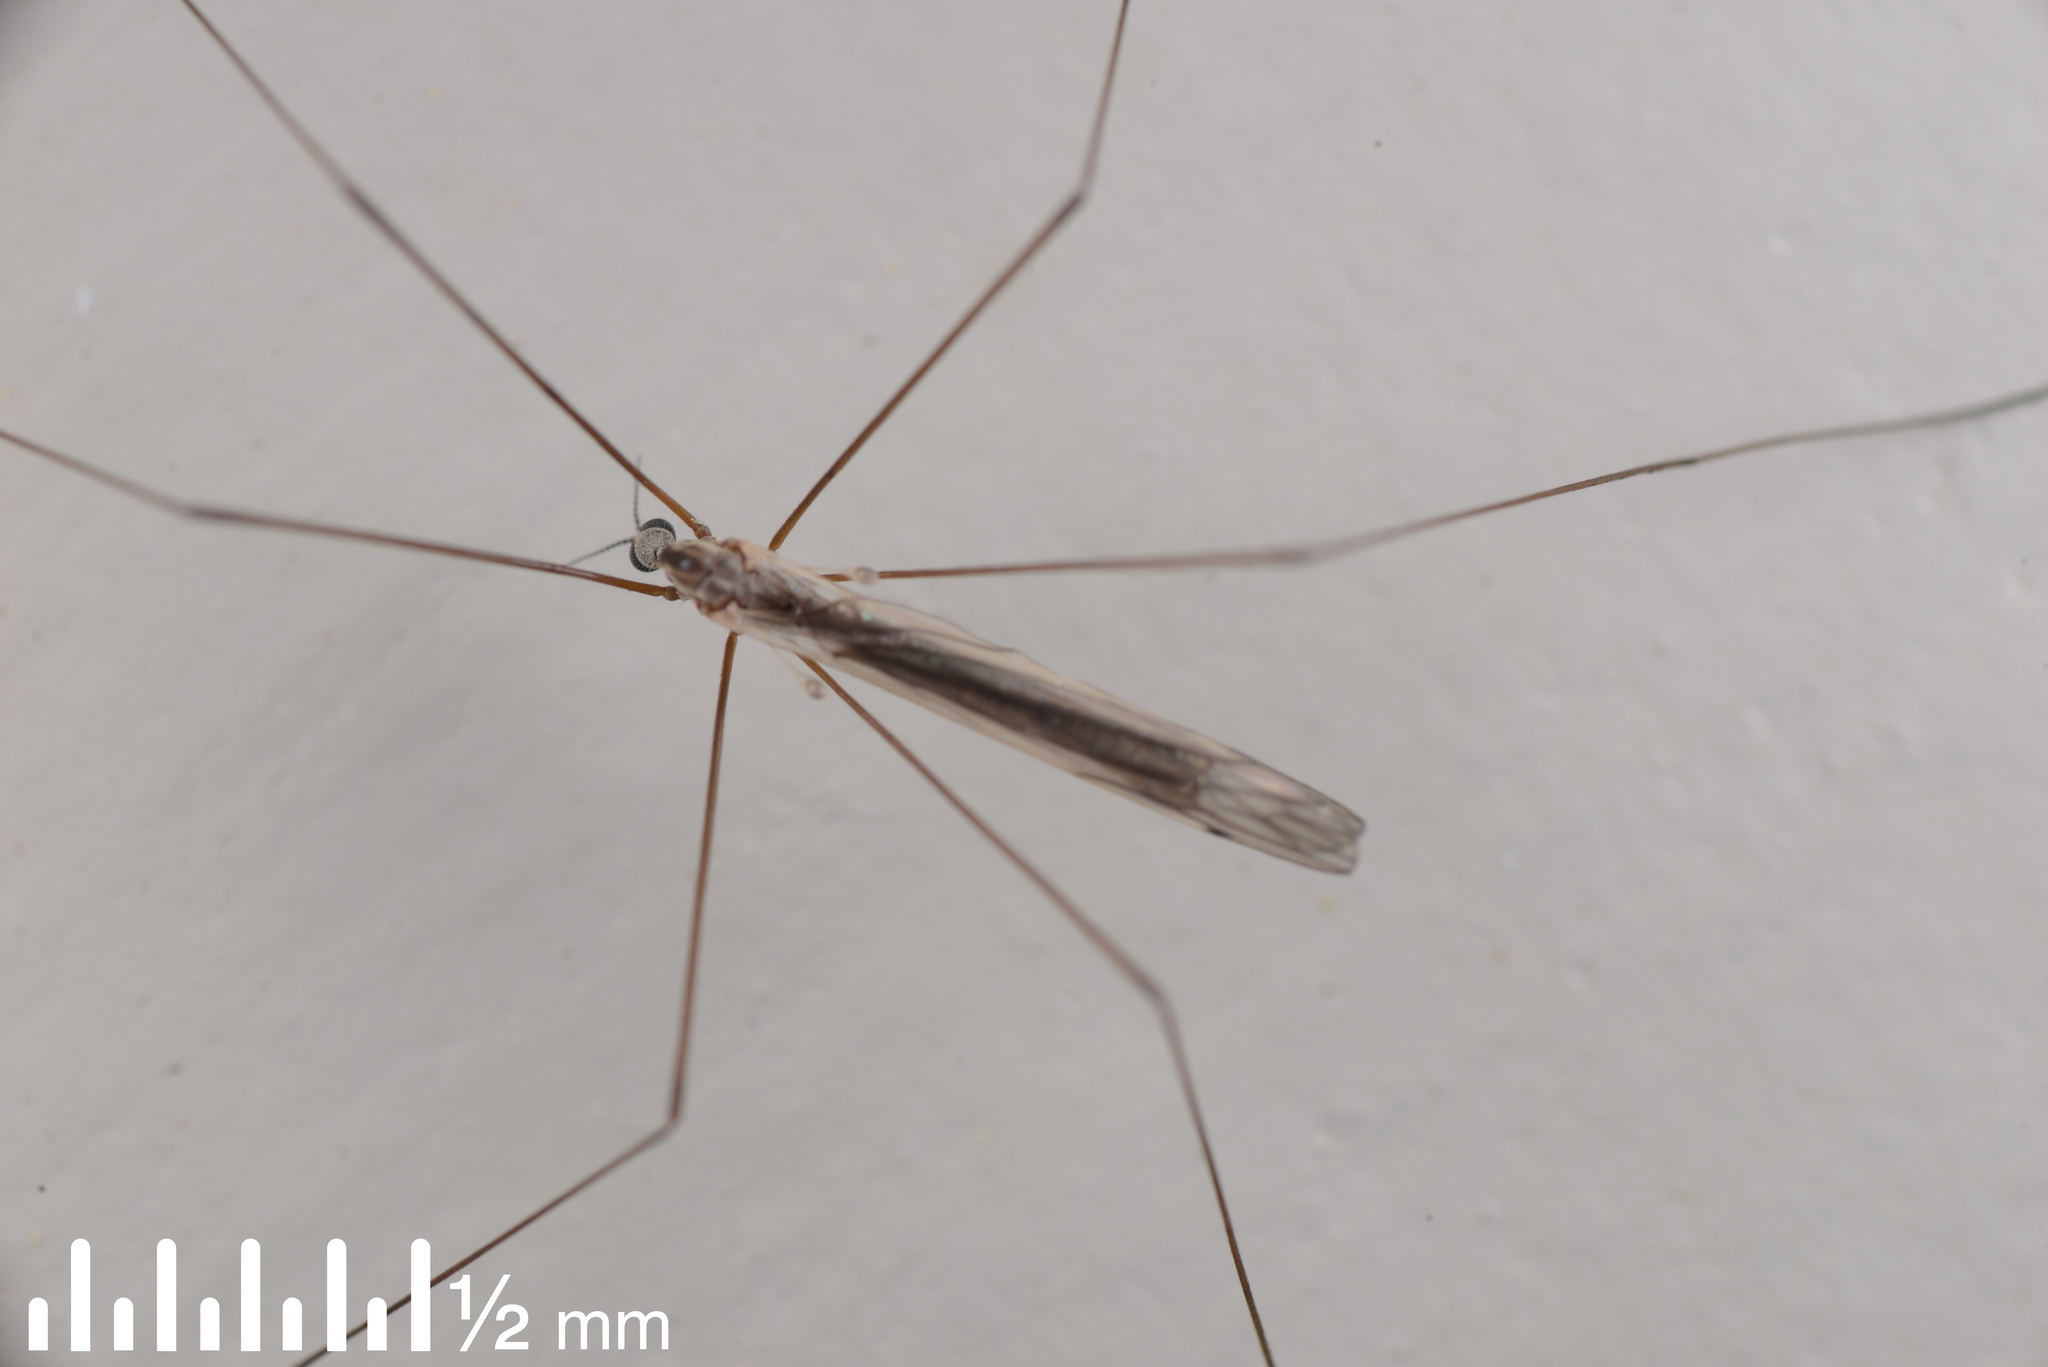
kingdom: Animalia
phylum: Arthropoda
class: Insecta
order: Diptera
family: Limoniidae
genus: Dicranomyia
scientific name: Dicranomyia aegrotans
